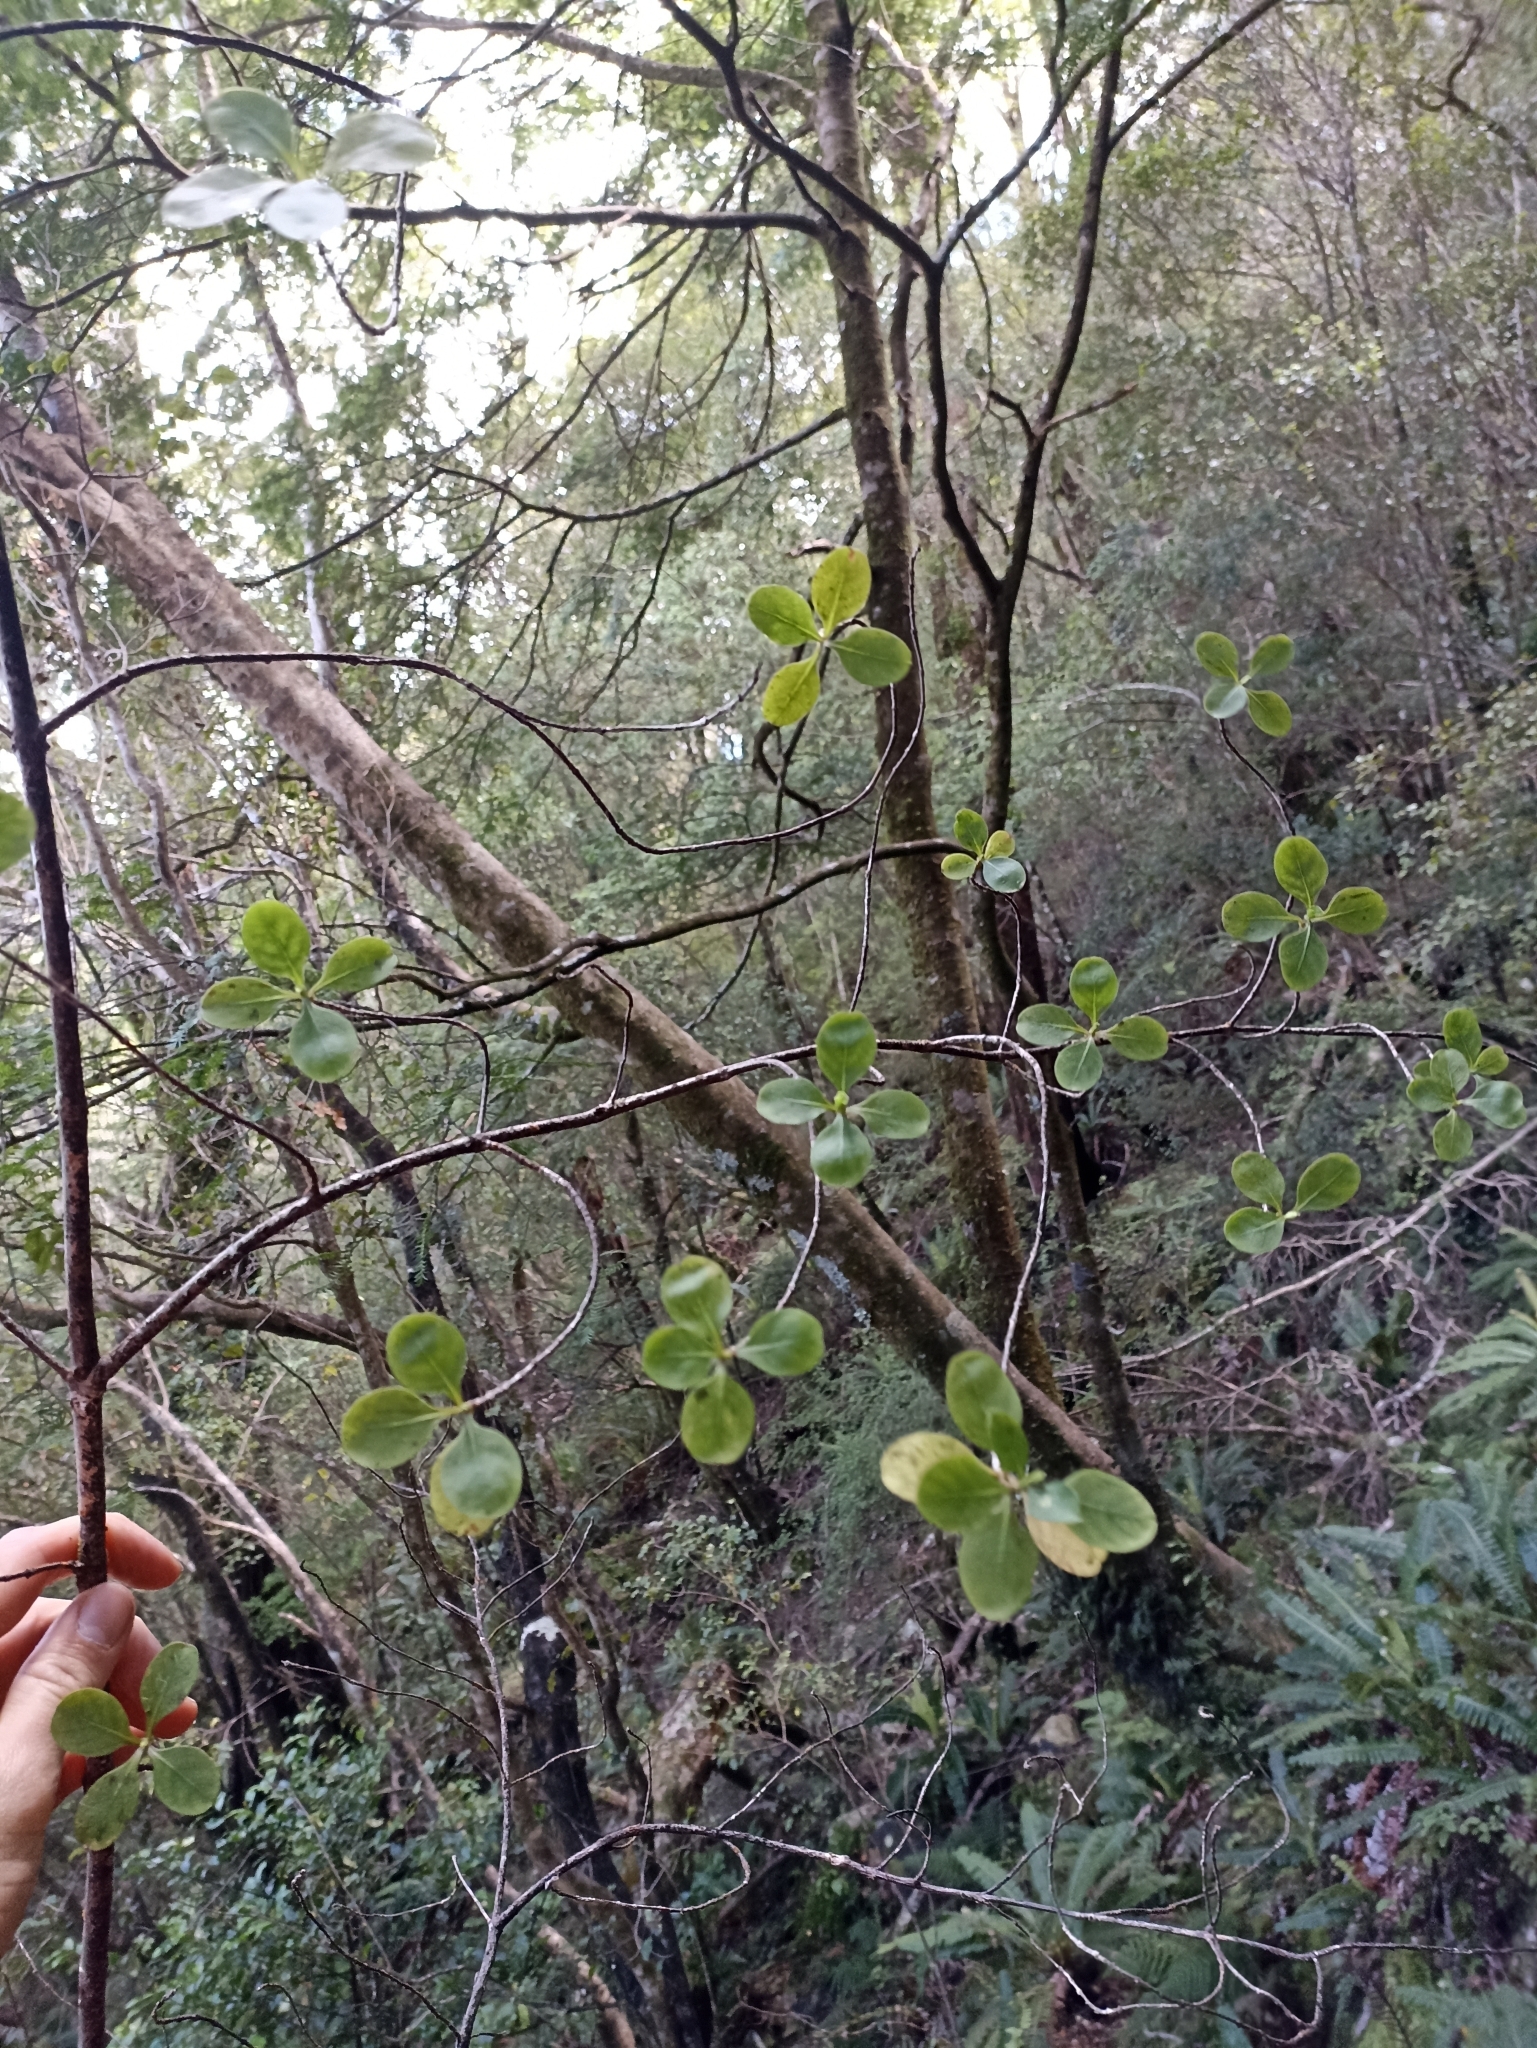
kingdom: Plantae
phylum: Tracheophyta
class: Magnoliopsida
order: Gentianales
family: Rubiaceae
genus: Coprosma
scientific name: Coprosma foetidissima
